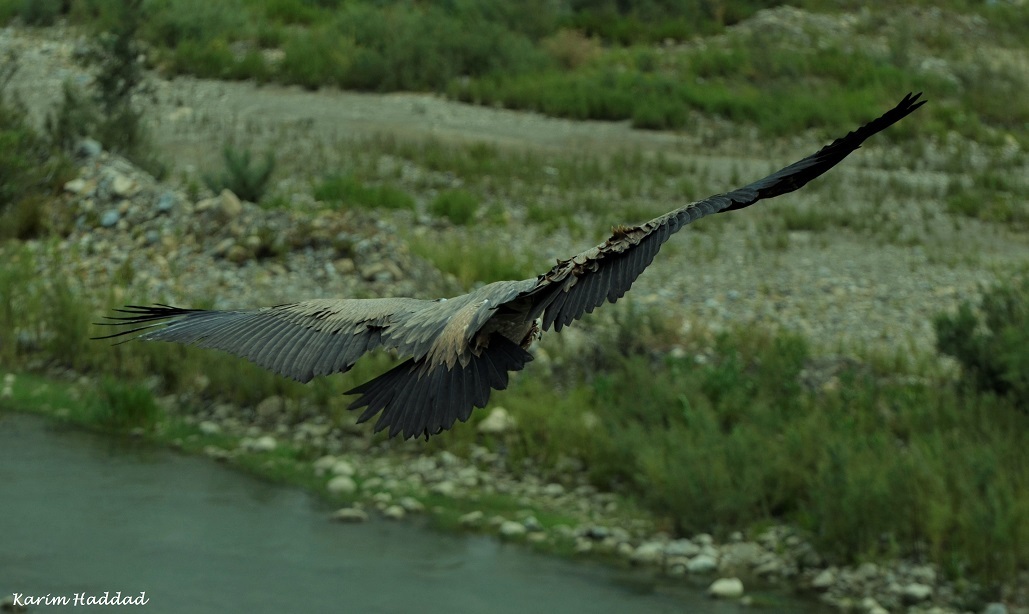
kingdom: Animalia
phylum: Chordata
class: Aves
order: Accipitriformes
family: Accipitridae
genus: Gyps
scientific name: Gyps fulvus
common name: Griffon vulture
